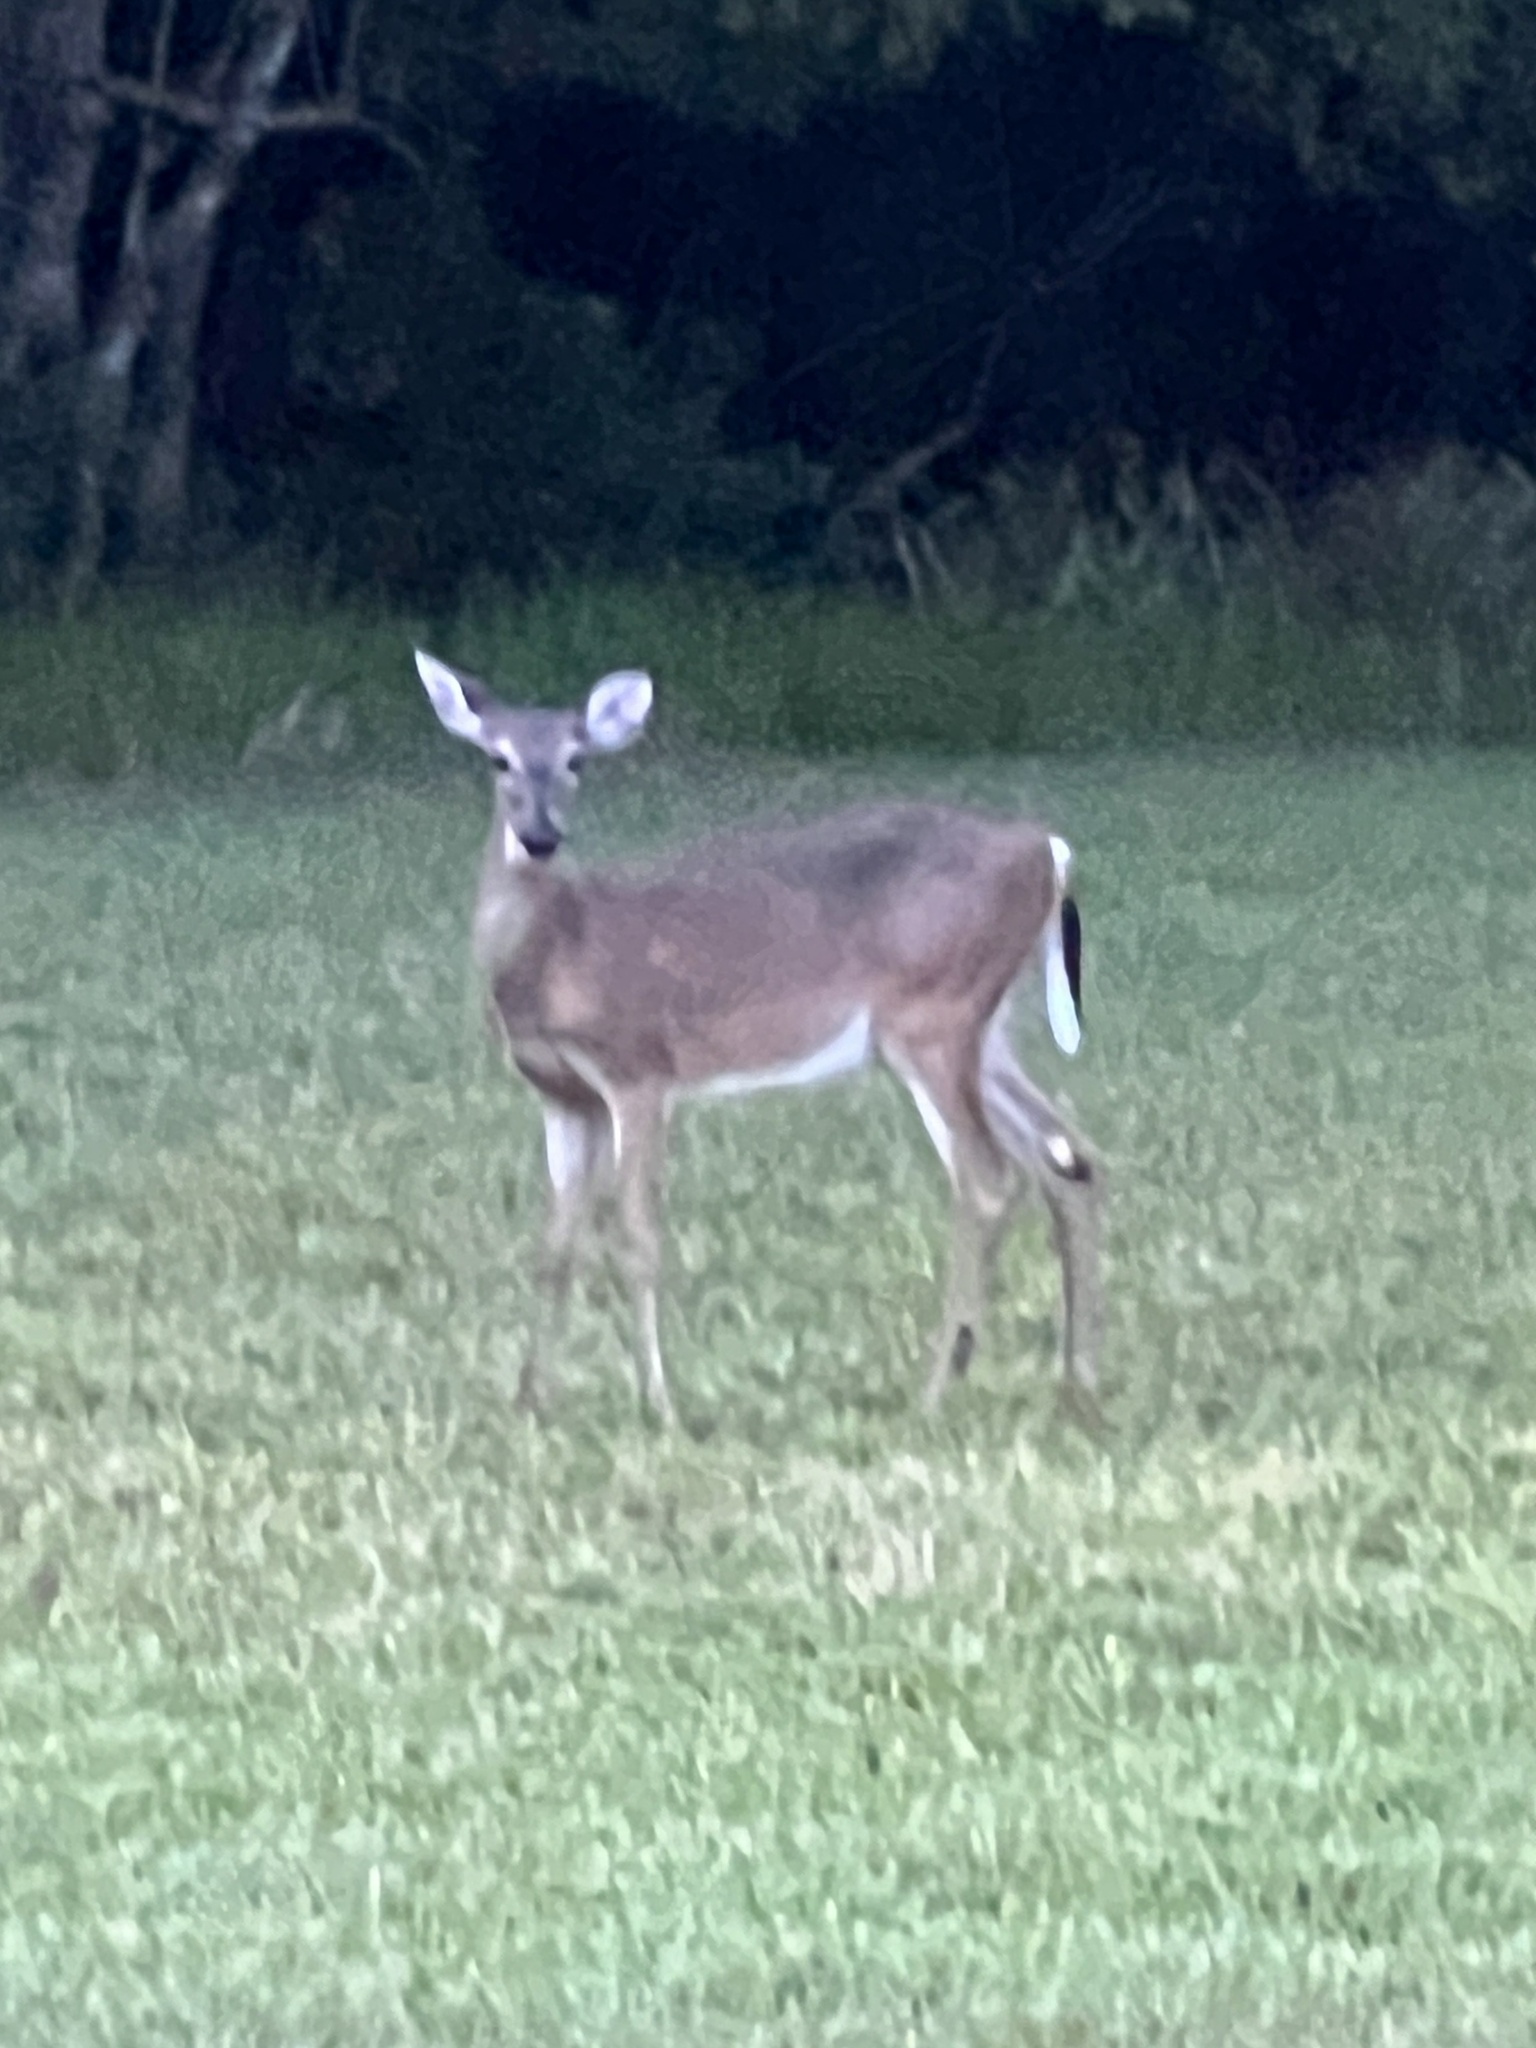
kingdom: Animalia
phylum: Chordata
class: Mammalia
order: Artiodactyla
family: Cervidae
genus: Odocoileus
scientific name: Odocoileus virginianus
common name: White-tailed deer
